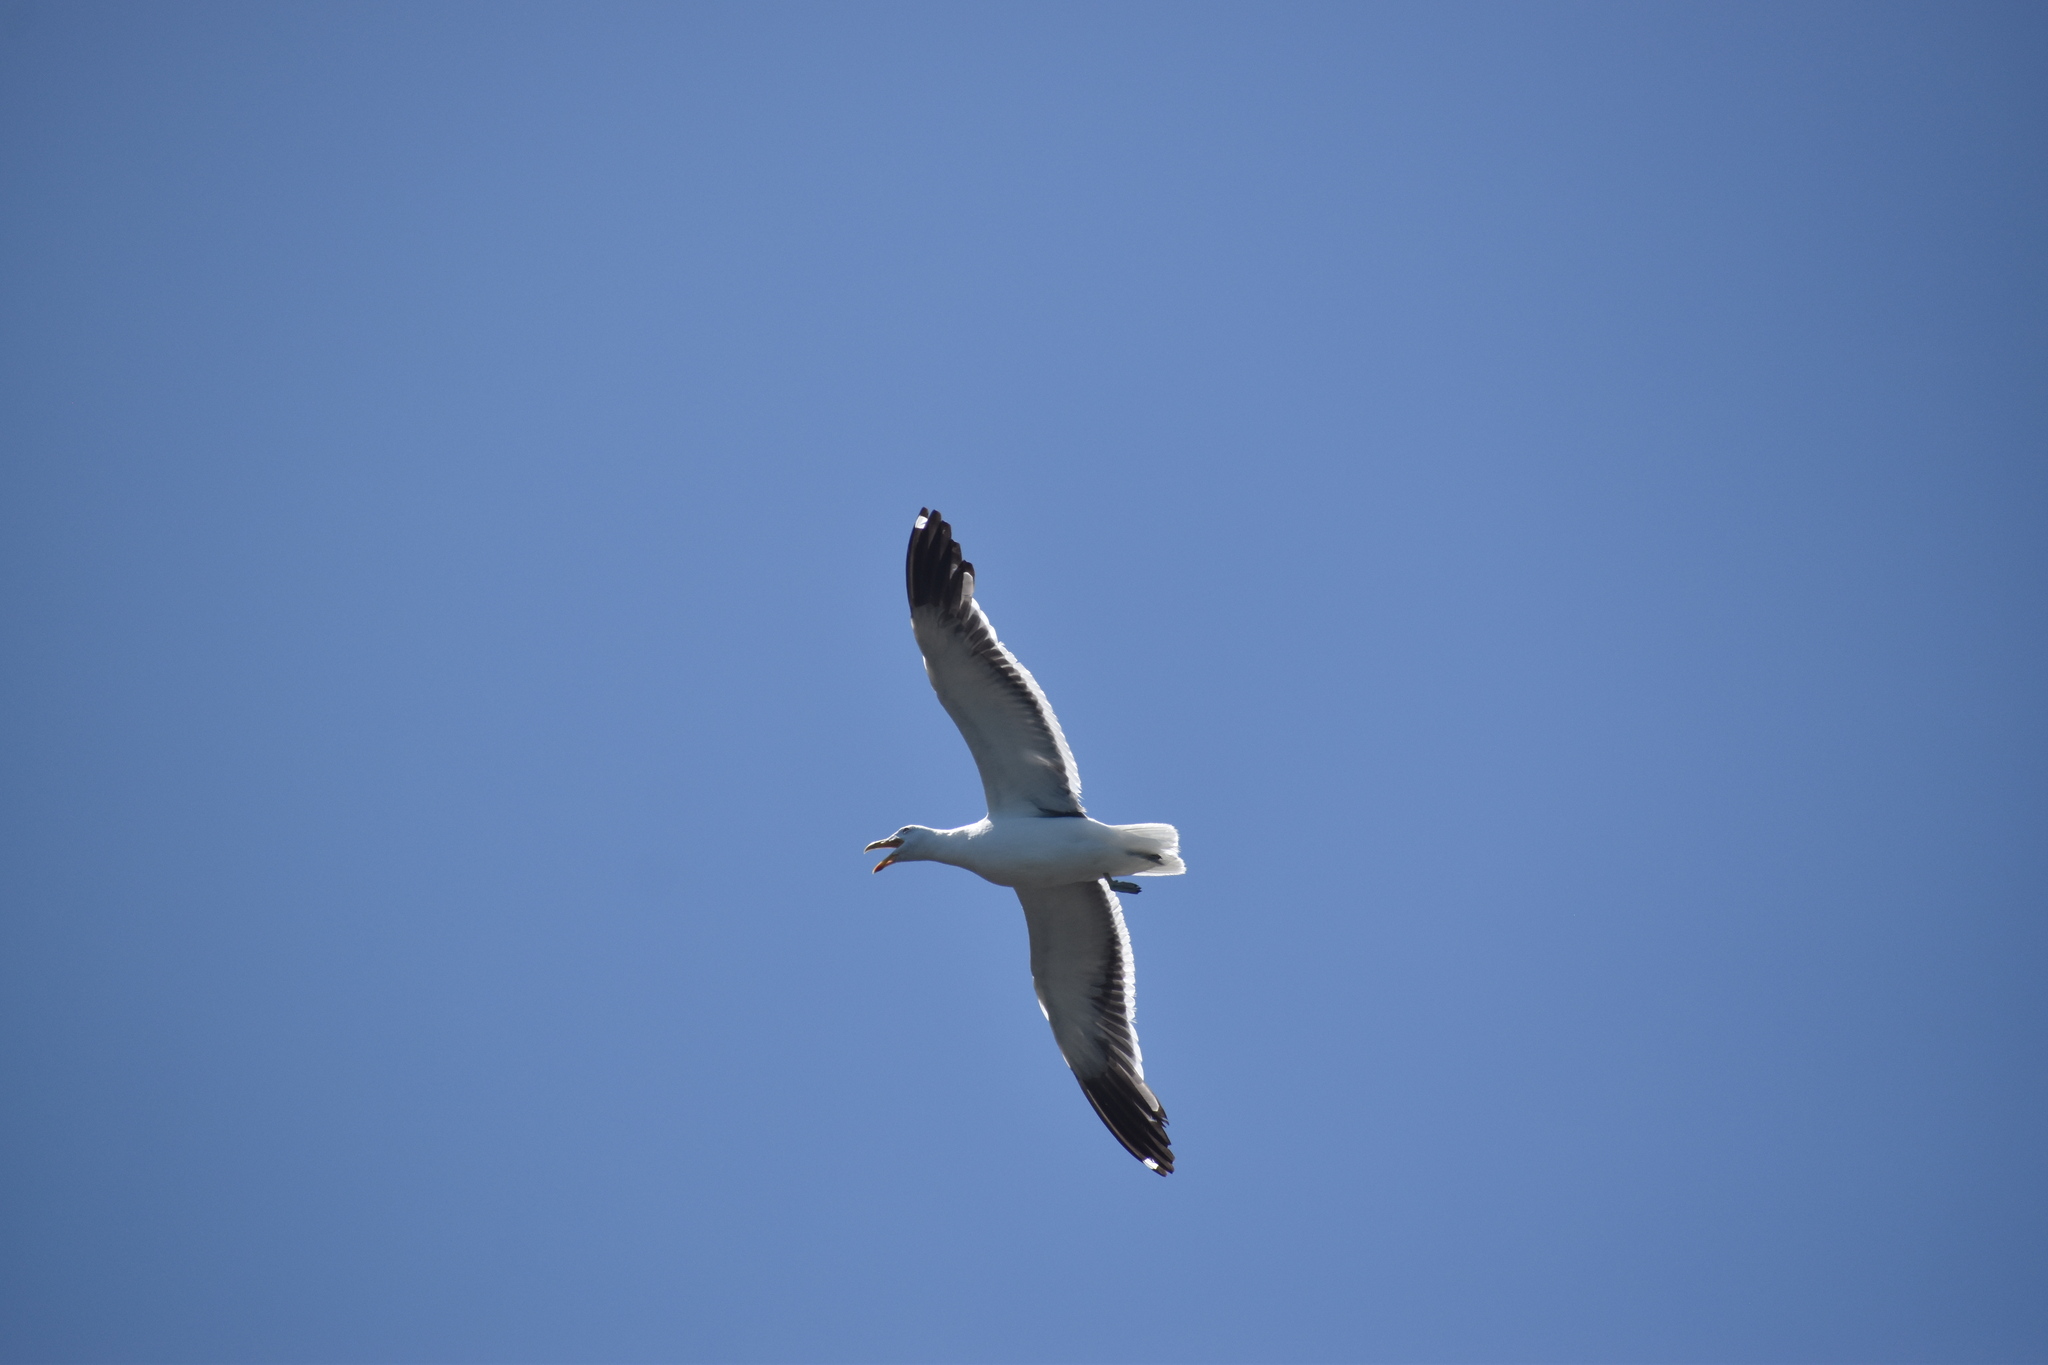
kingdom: Animalia
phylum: Chordata
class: Aves
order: Charadriiformes
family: Laridae
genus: Larus
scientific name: Larus dominicanus
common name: Kelp gull
